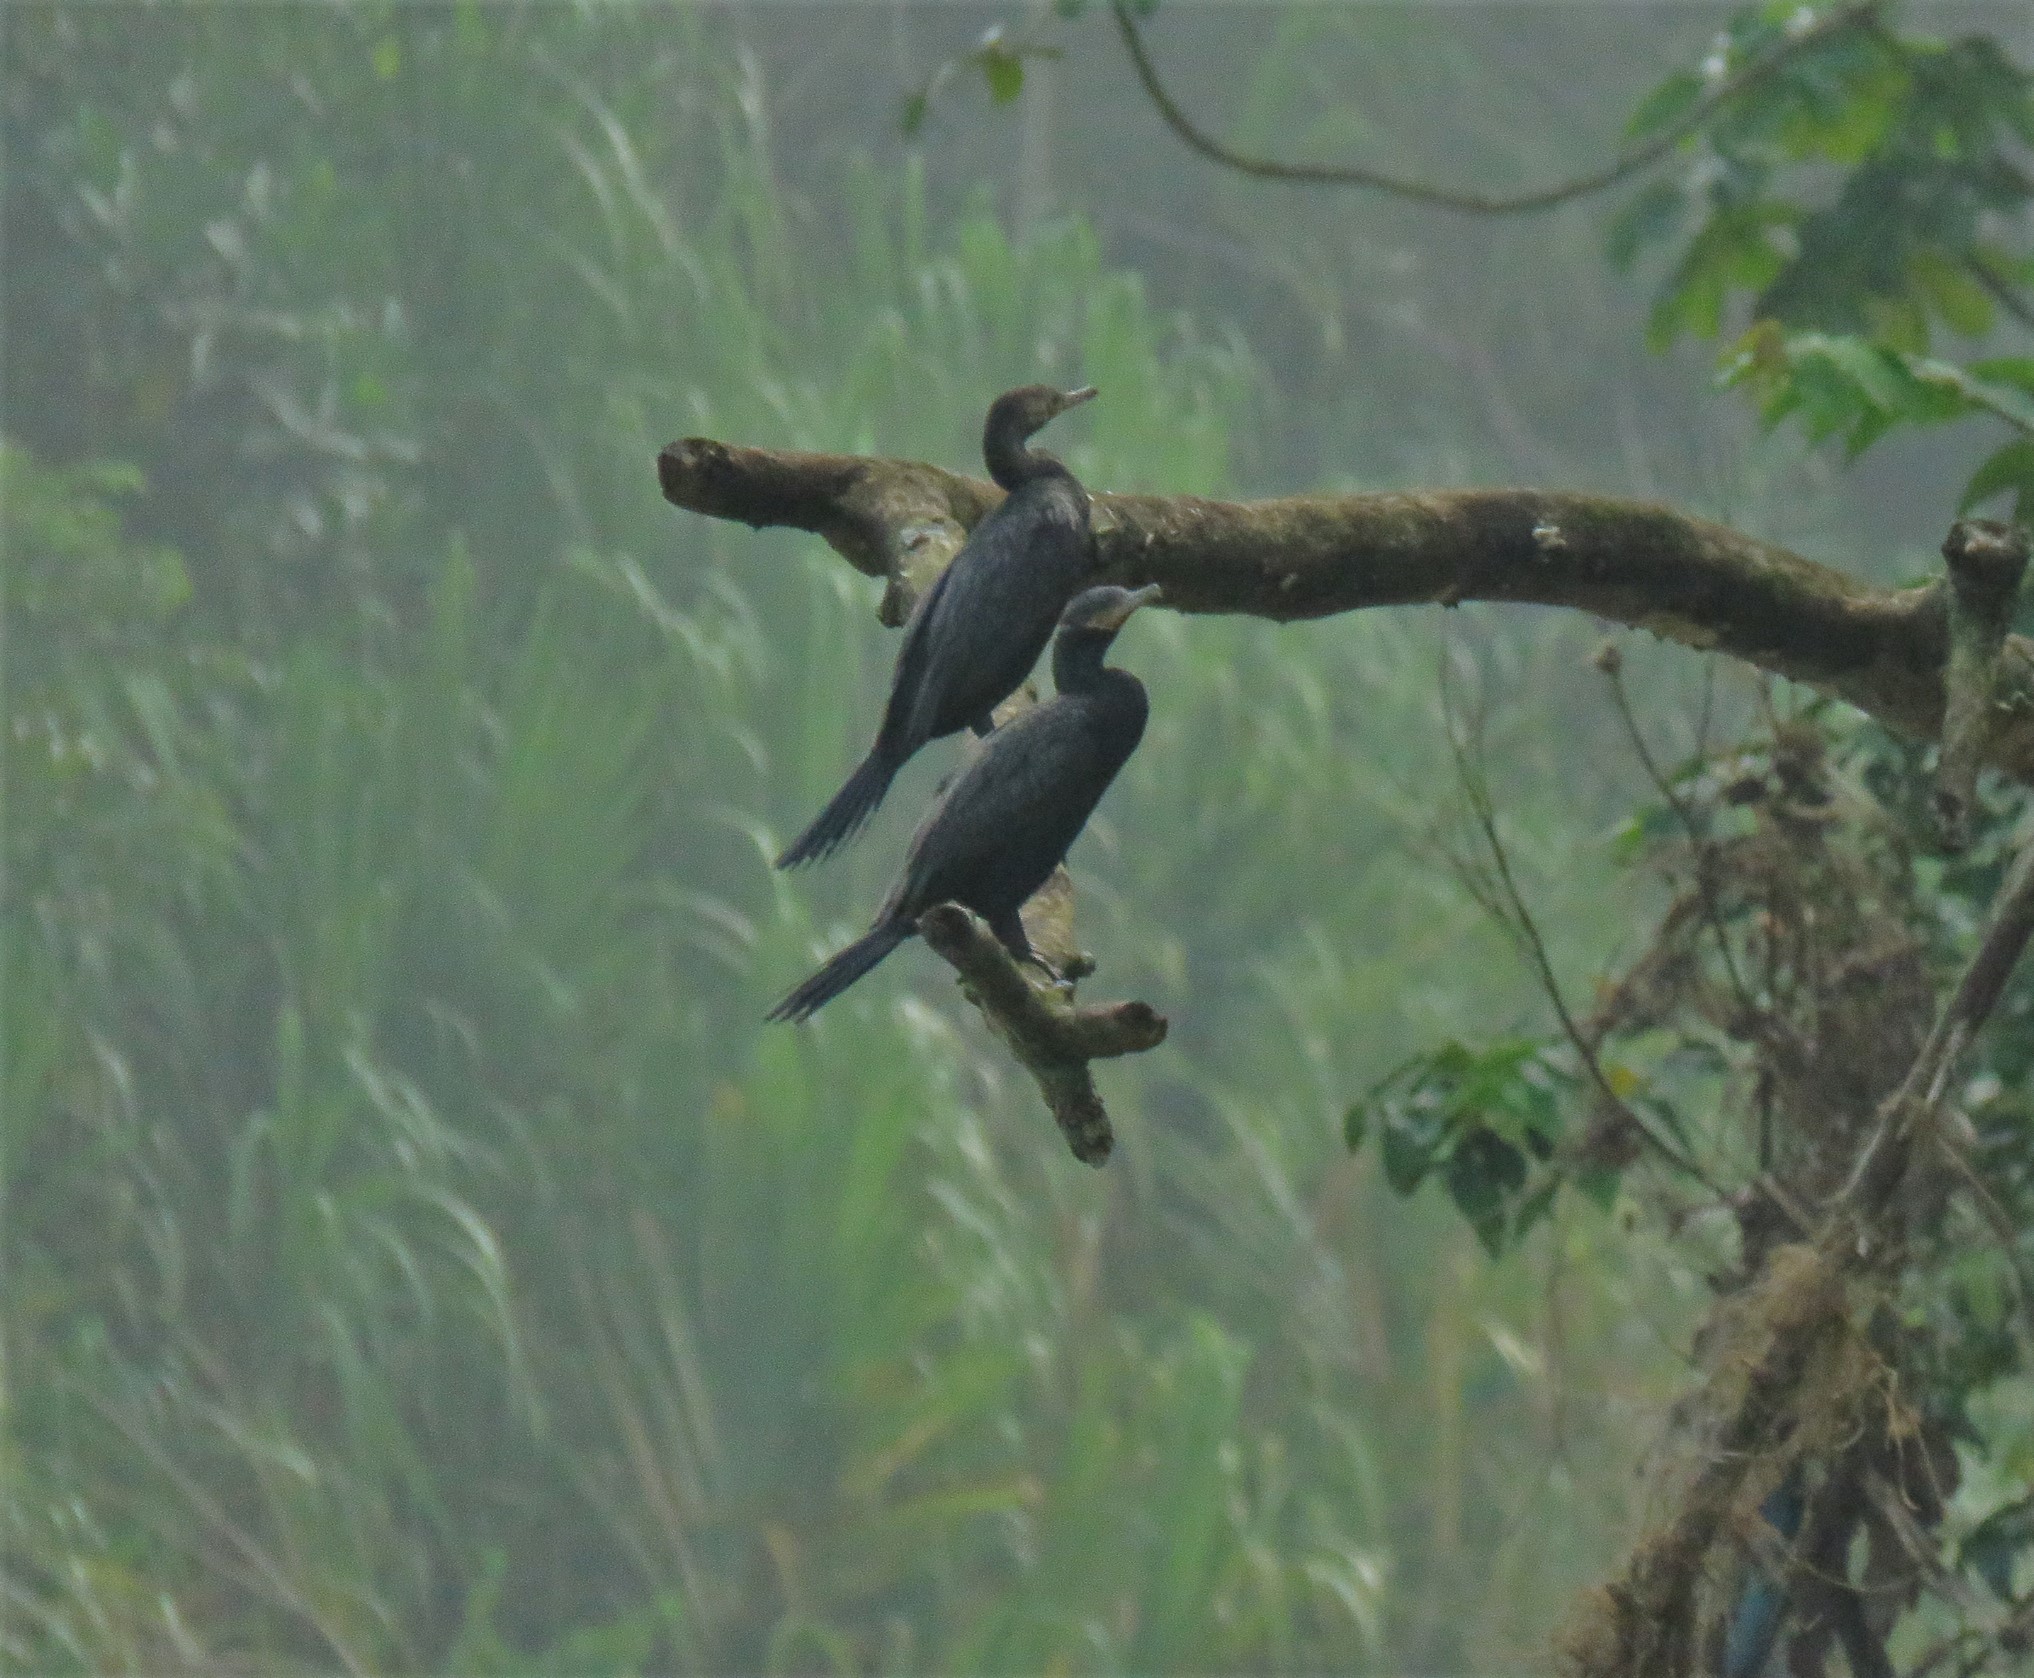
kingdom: Animalia
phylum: Chordata
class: Aves
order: Suliformes
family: Phalacrocoracidae
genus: Phalacrocorax
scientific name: Phalacrocorax brasilianus
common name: Neotropic cormorant
